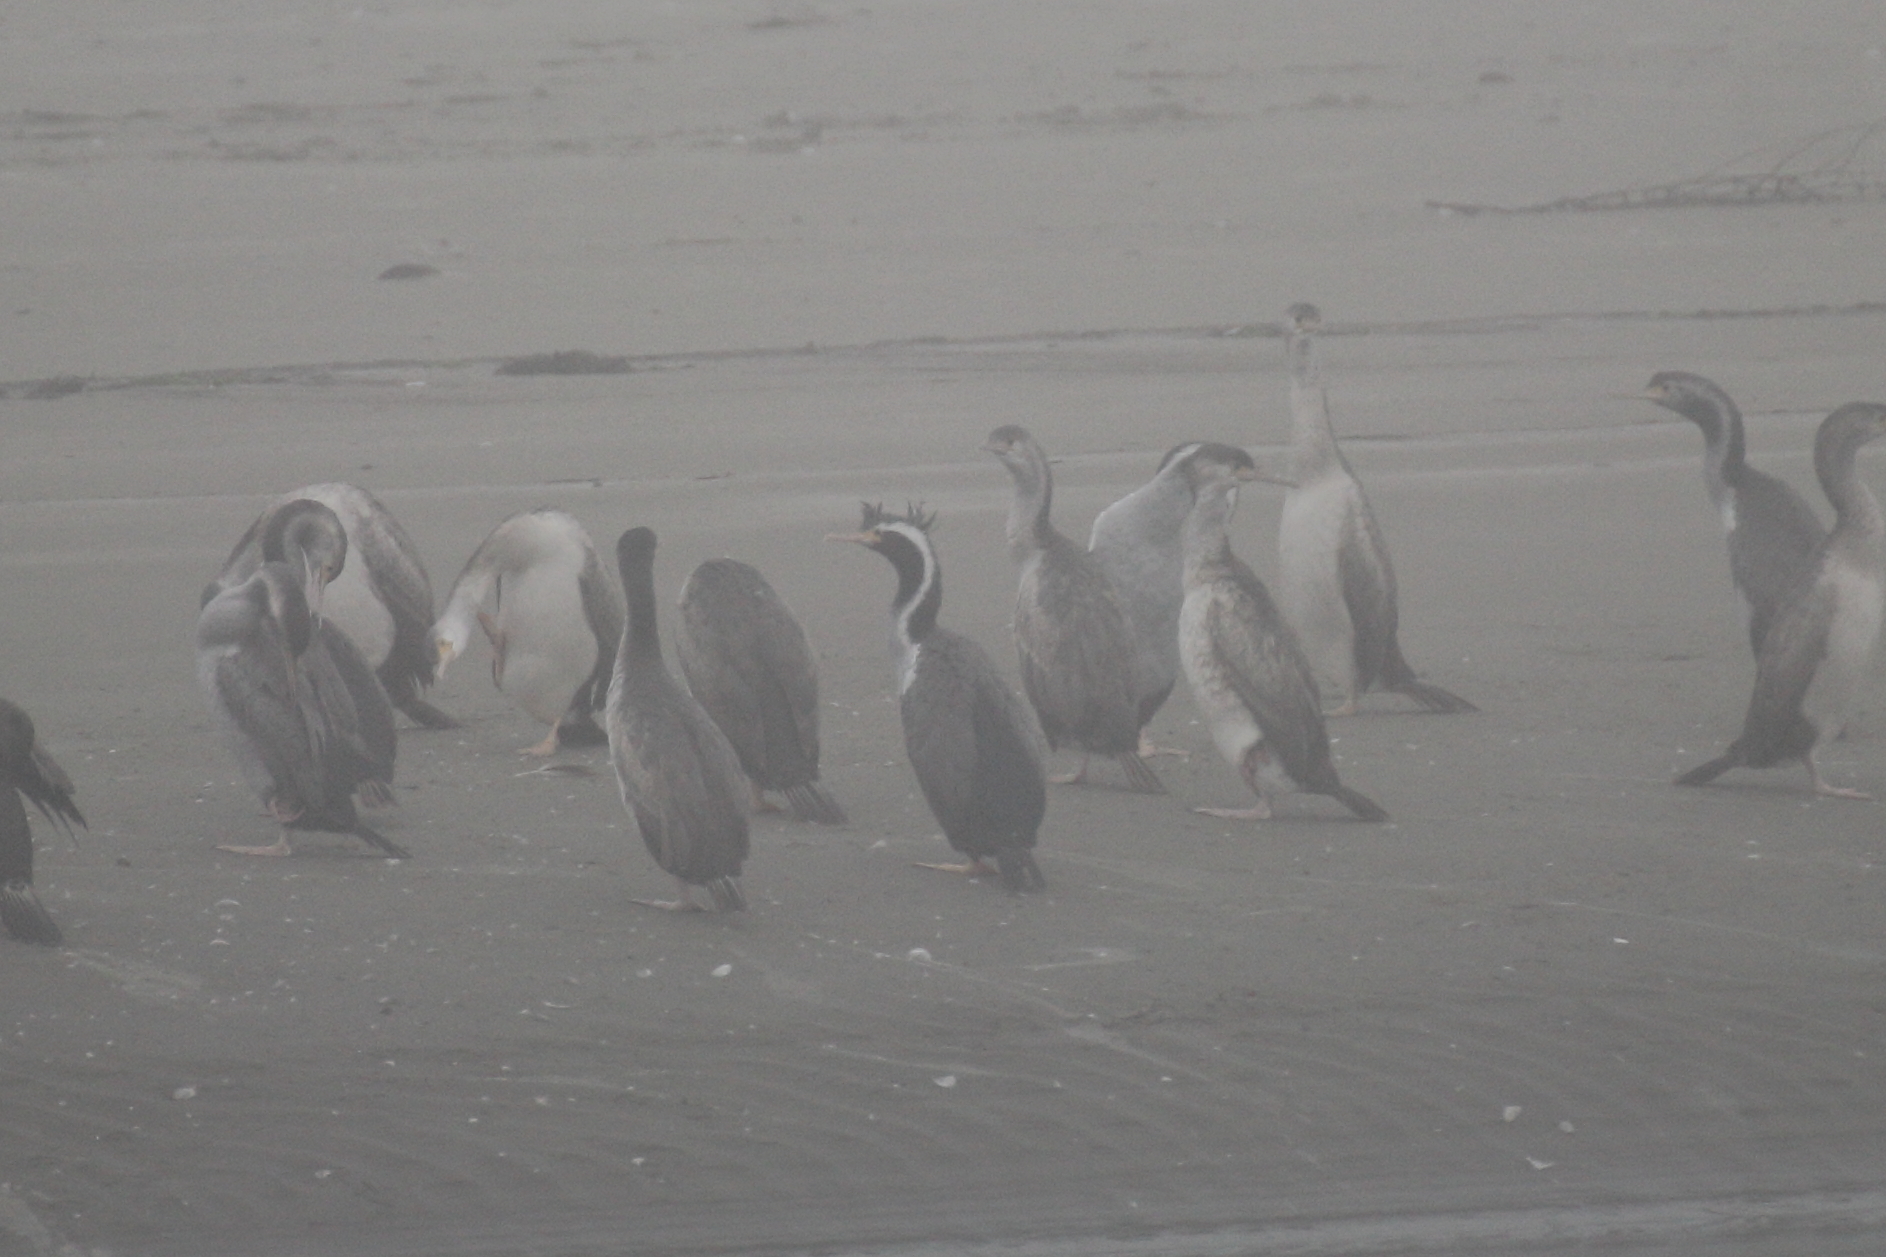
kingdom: Animalia
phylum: Chordata
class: Aves
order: Suliformes
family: Phalacrocoracidae
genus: Phalacrocorax
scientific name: Phalacrocorax punctatus
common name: Spotted shag
